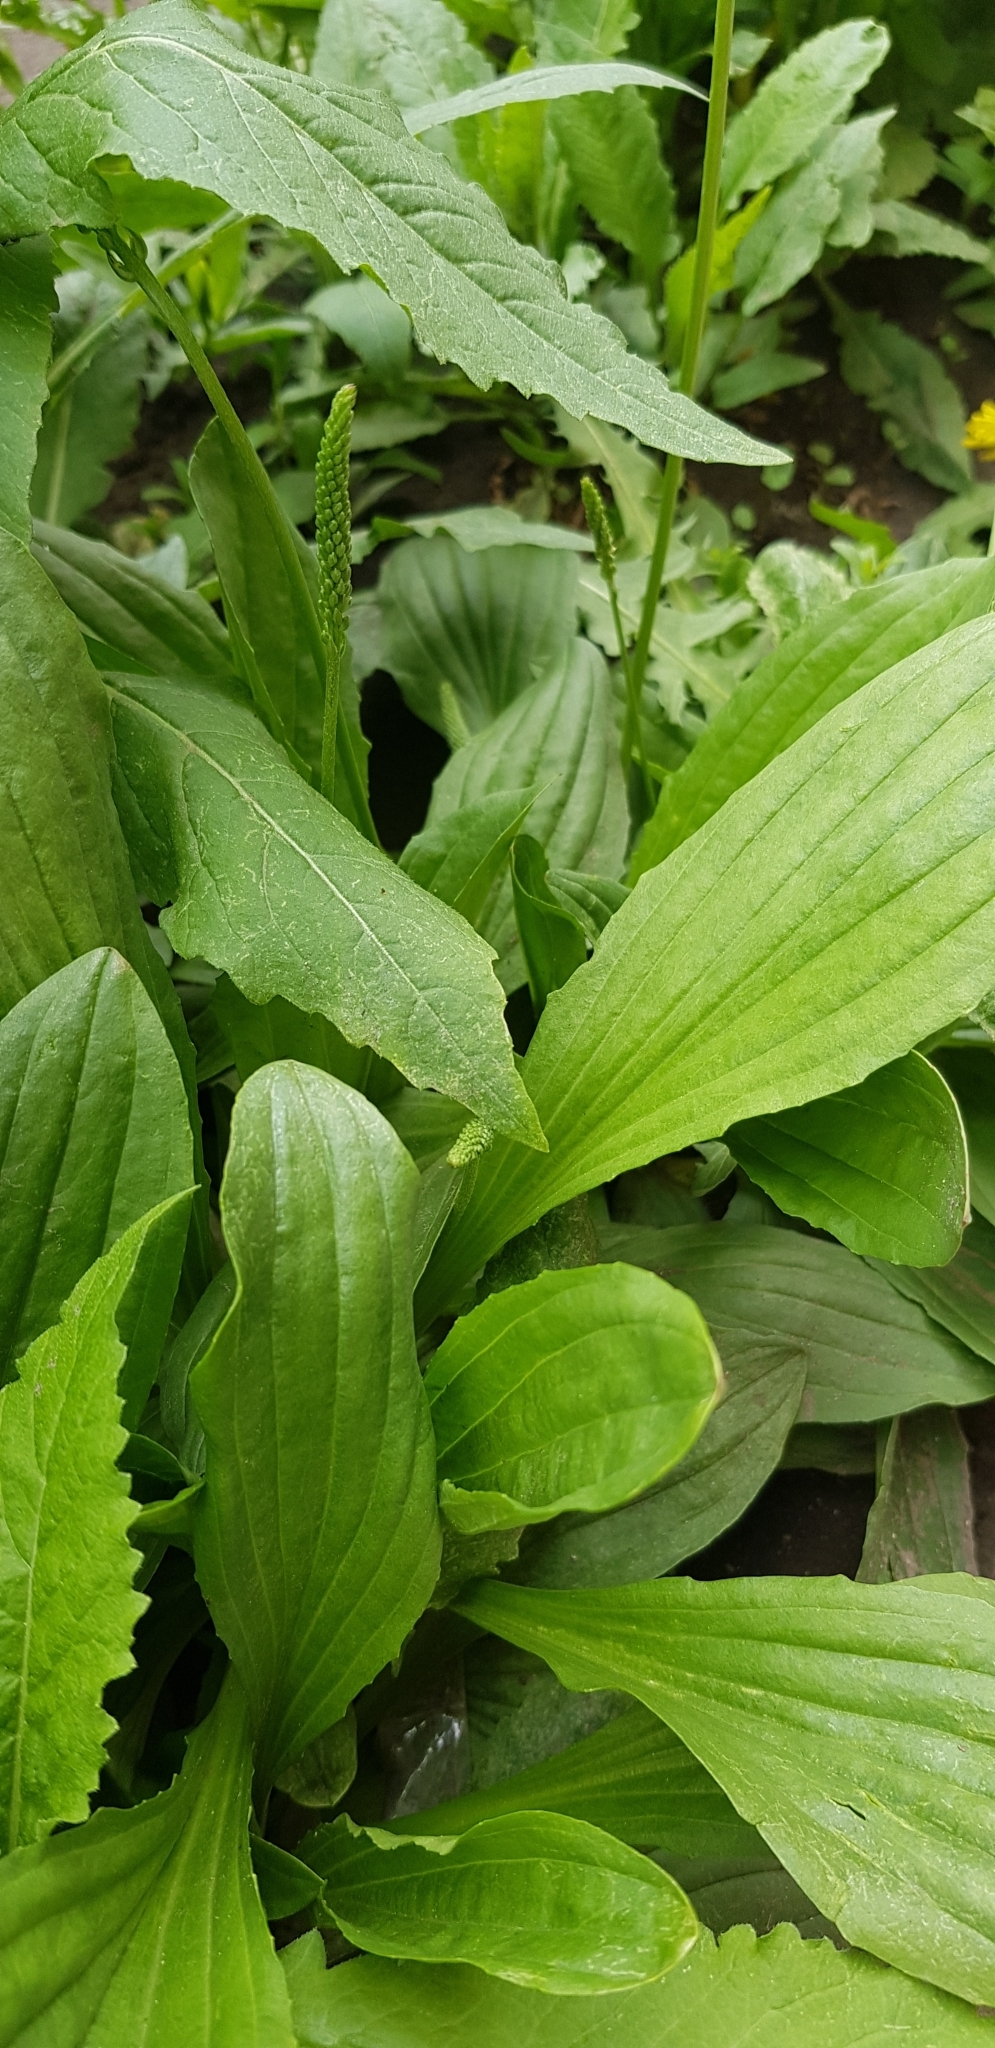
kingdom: Plantae
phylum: Tracheophyta
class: Magnoliopsida
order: Lamiales
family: Plantaginaceae
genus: Plantago
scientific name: Plantago major
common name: Common plantain
